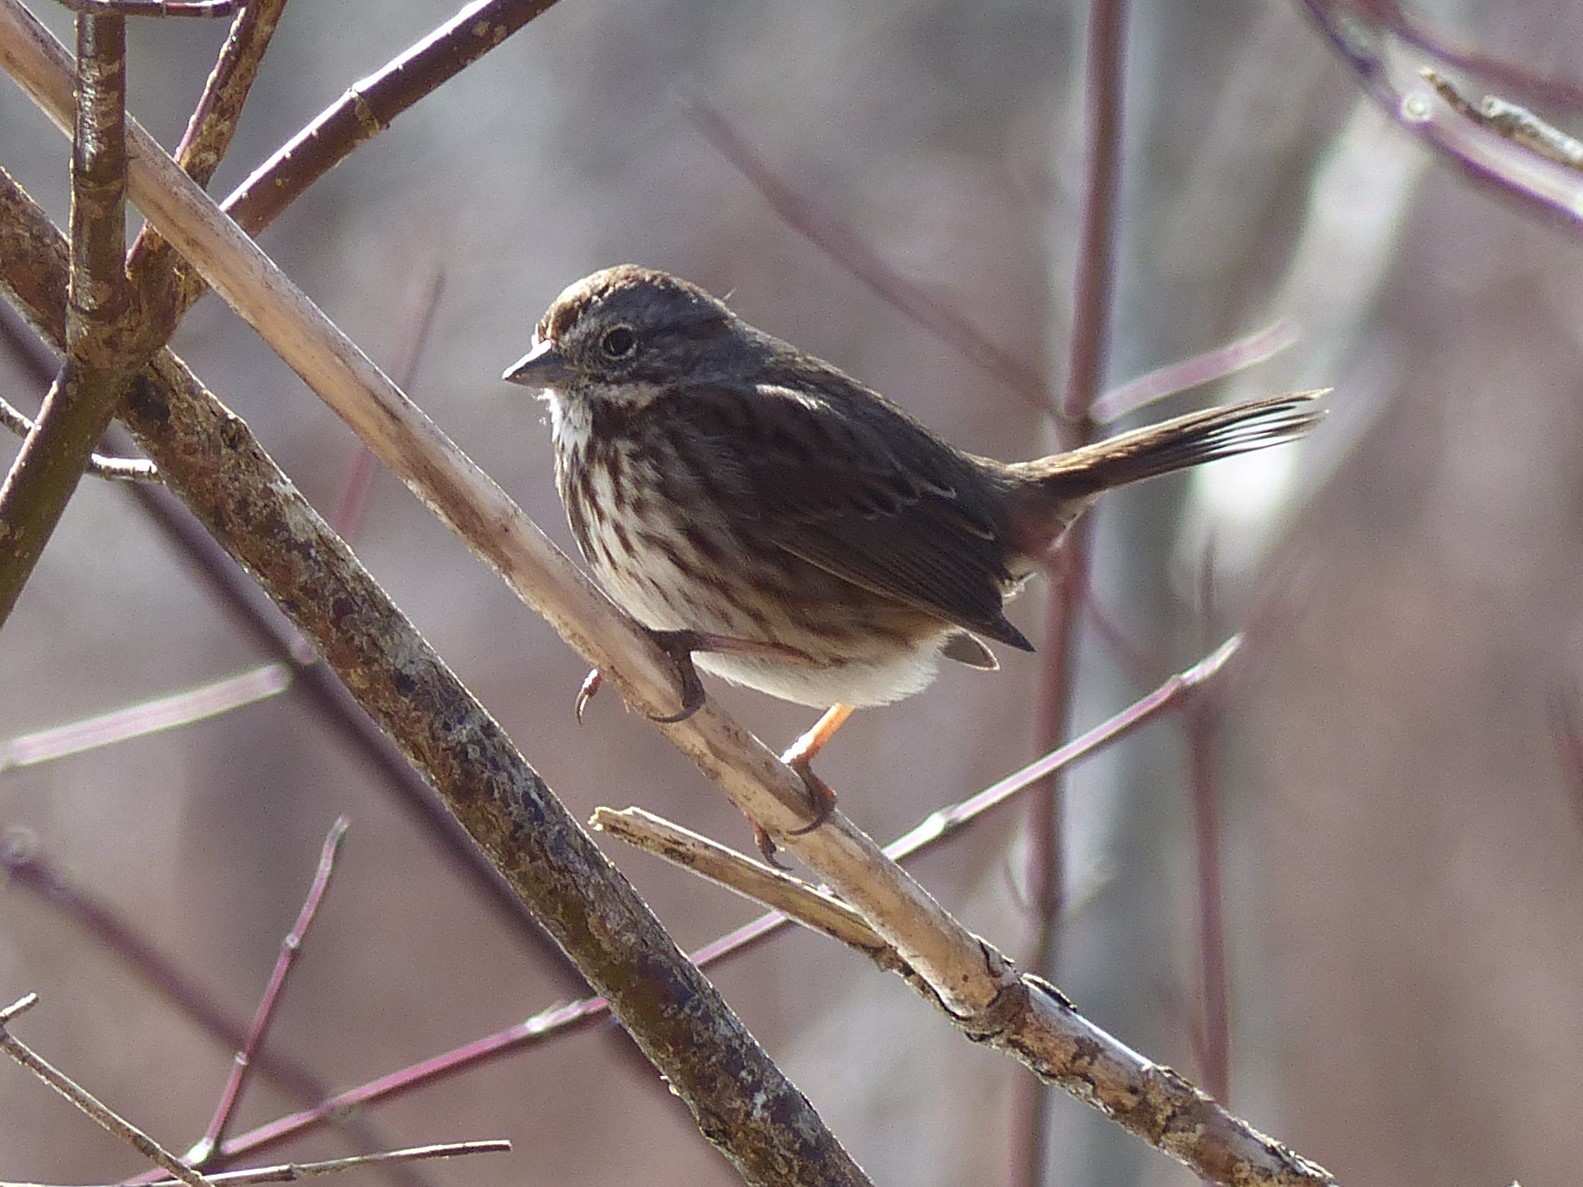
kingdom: Animalia
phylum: Chordata
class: Aves
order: Passeriformes
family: Passerellidae
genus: Melospiza
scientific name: Melospiza melodia
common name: Song sparrow
